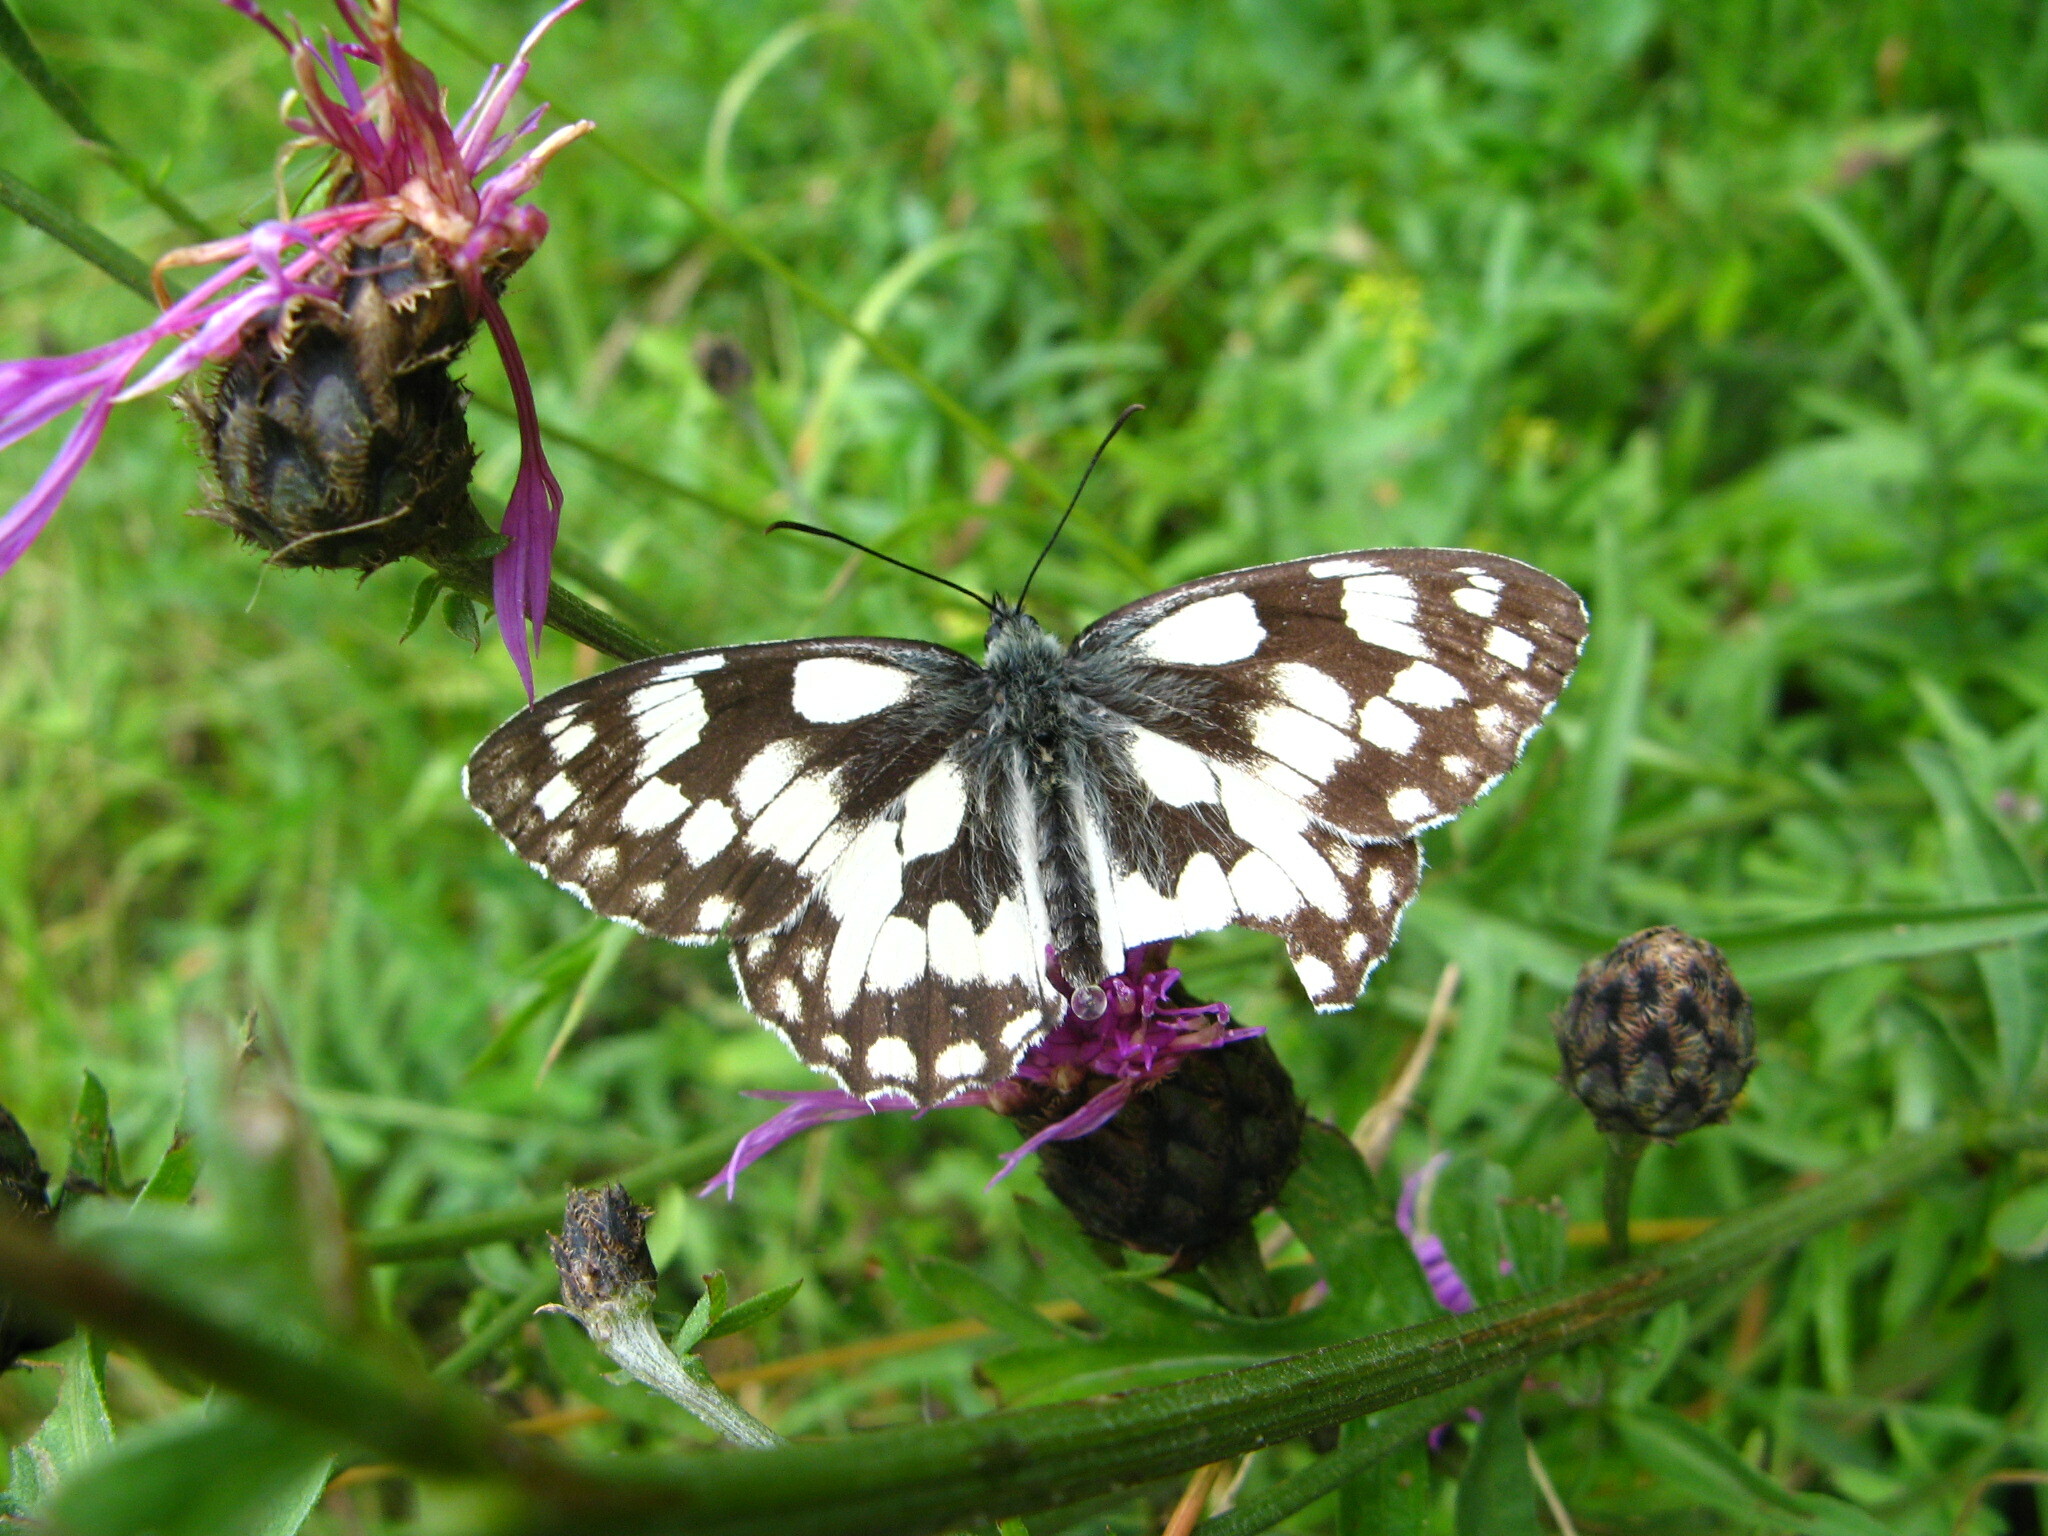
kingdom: Animalia
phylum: Arthropoda
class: Insecta
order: Lepidoptera
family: Nymphalidae
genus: Melanargia
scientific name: Melanargia galathea
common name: Marbled white
